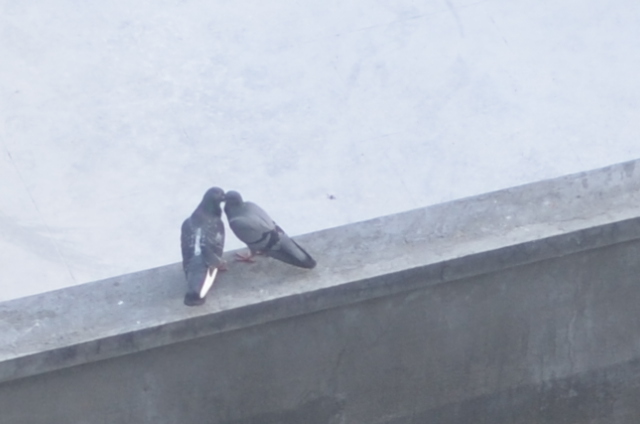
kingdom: Animalia
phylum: Chordata
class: Aves
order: Columbiformes
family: Columbidae
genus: Columba
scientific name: Columba livia
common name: Rock pigeon
